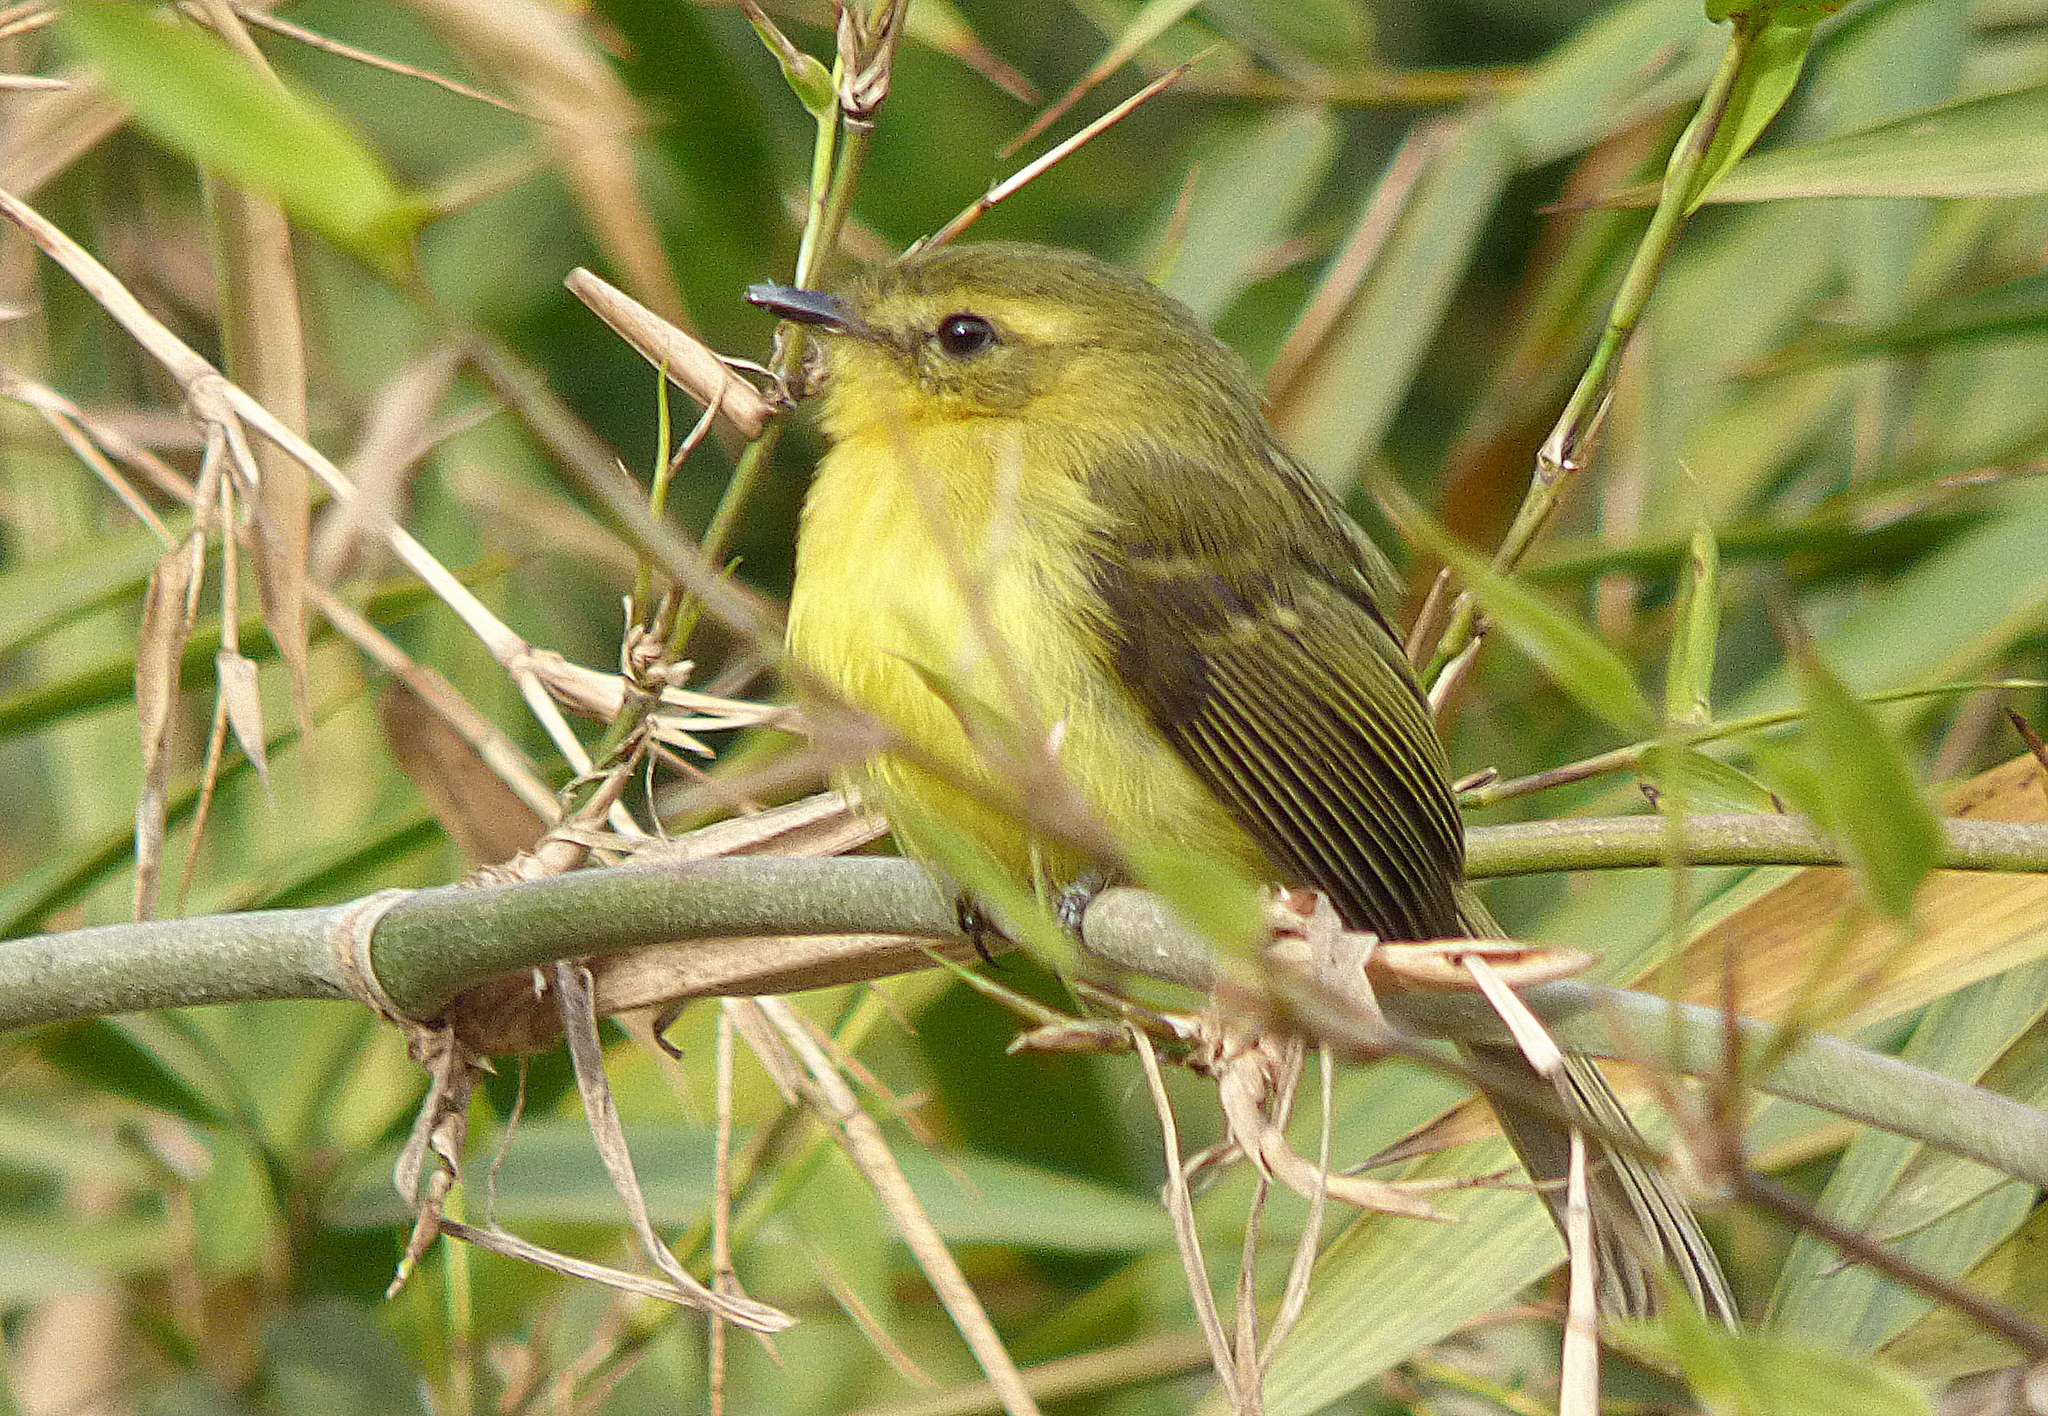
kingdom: Animalia
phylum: Chordata
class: Aves
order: Passeriformes
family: Tyrannidae
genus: Capsiempis
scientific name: Capsiempis flaveola
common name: Yellow tyrannulet
